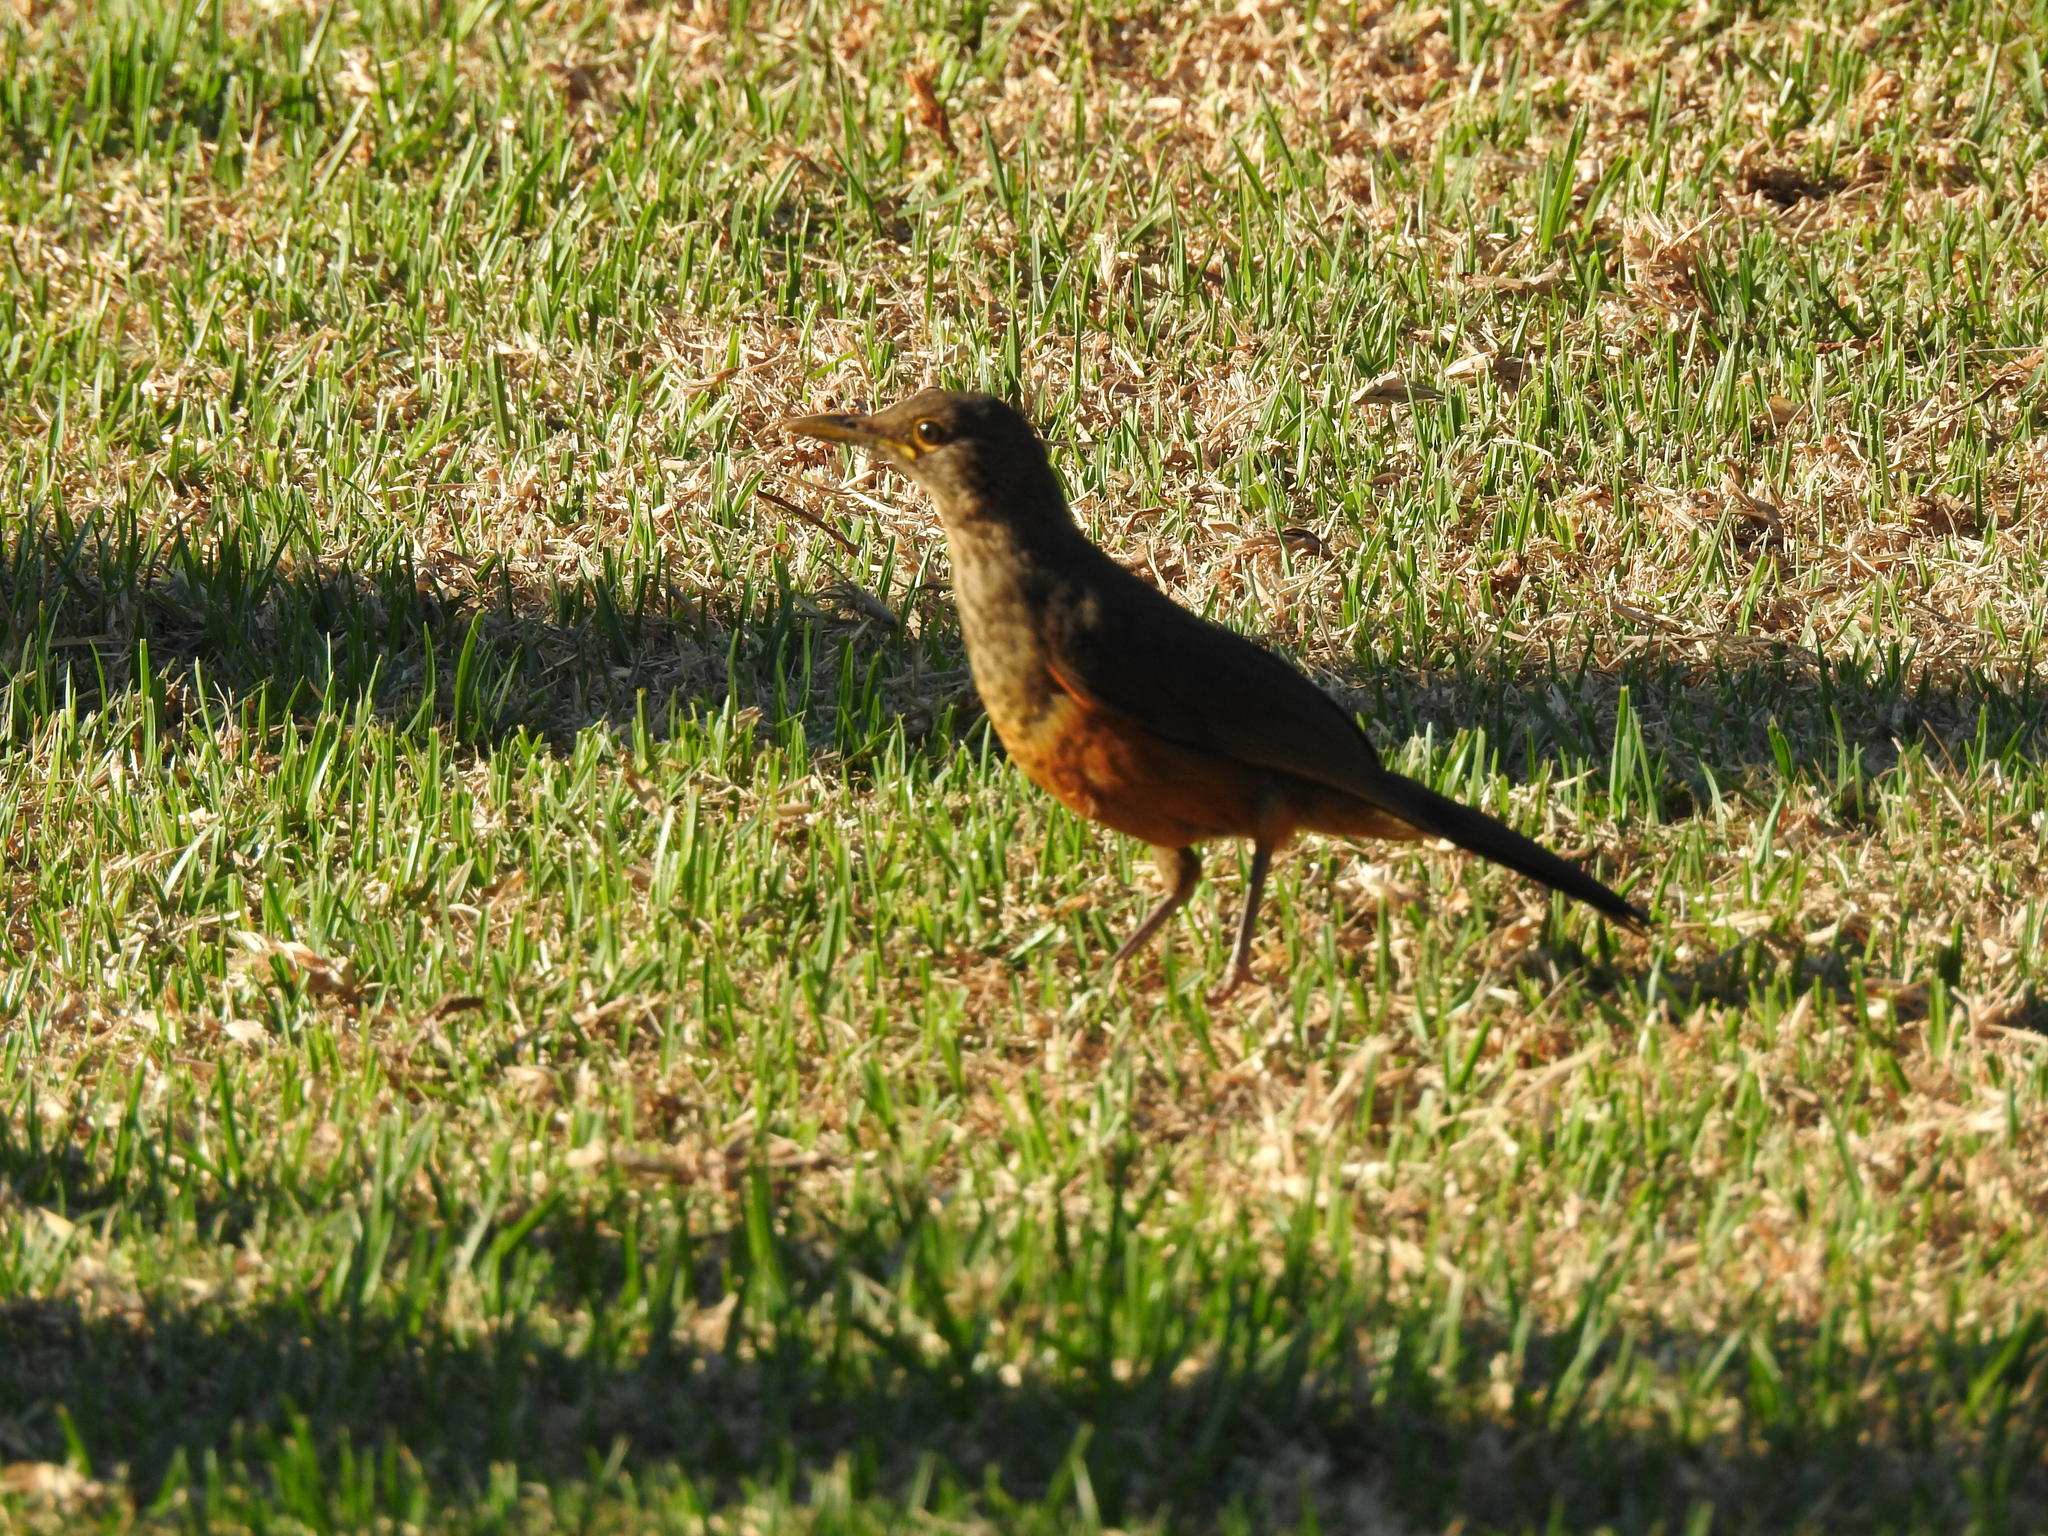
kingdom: Animalia
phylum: Chordata
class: Aves
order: Passeriformes
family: Turdidae
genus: Turdus
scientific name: Turdus rufiventris
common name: Rufous-bellied thrush
